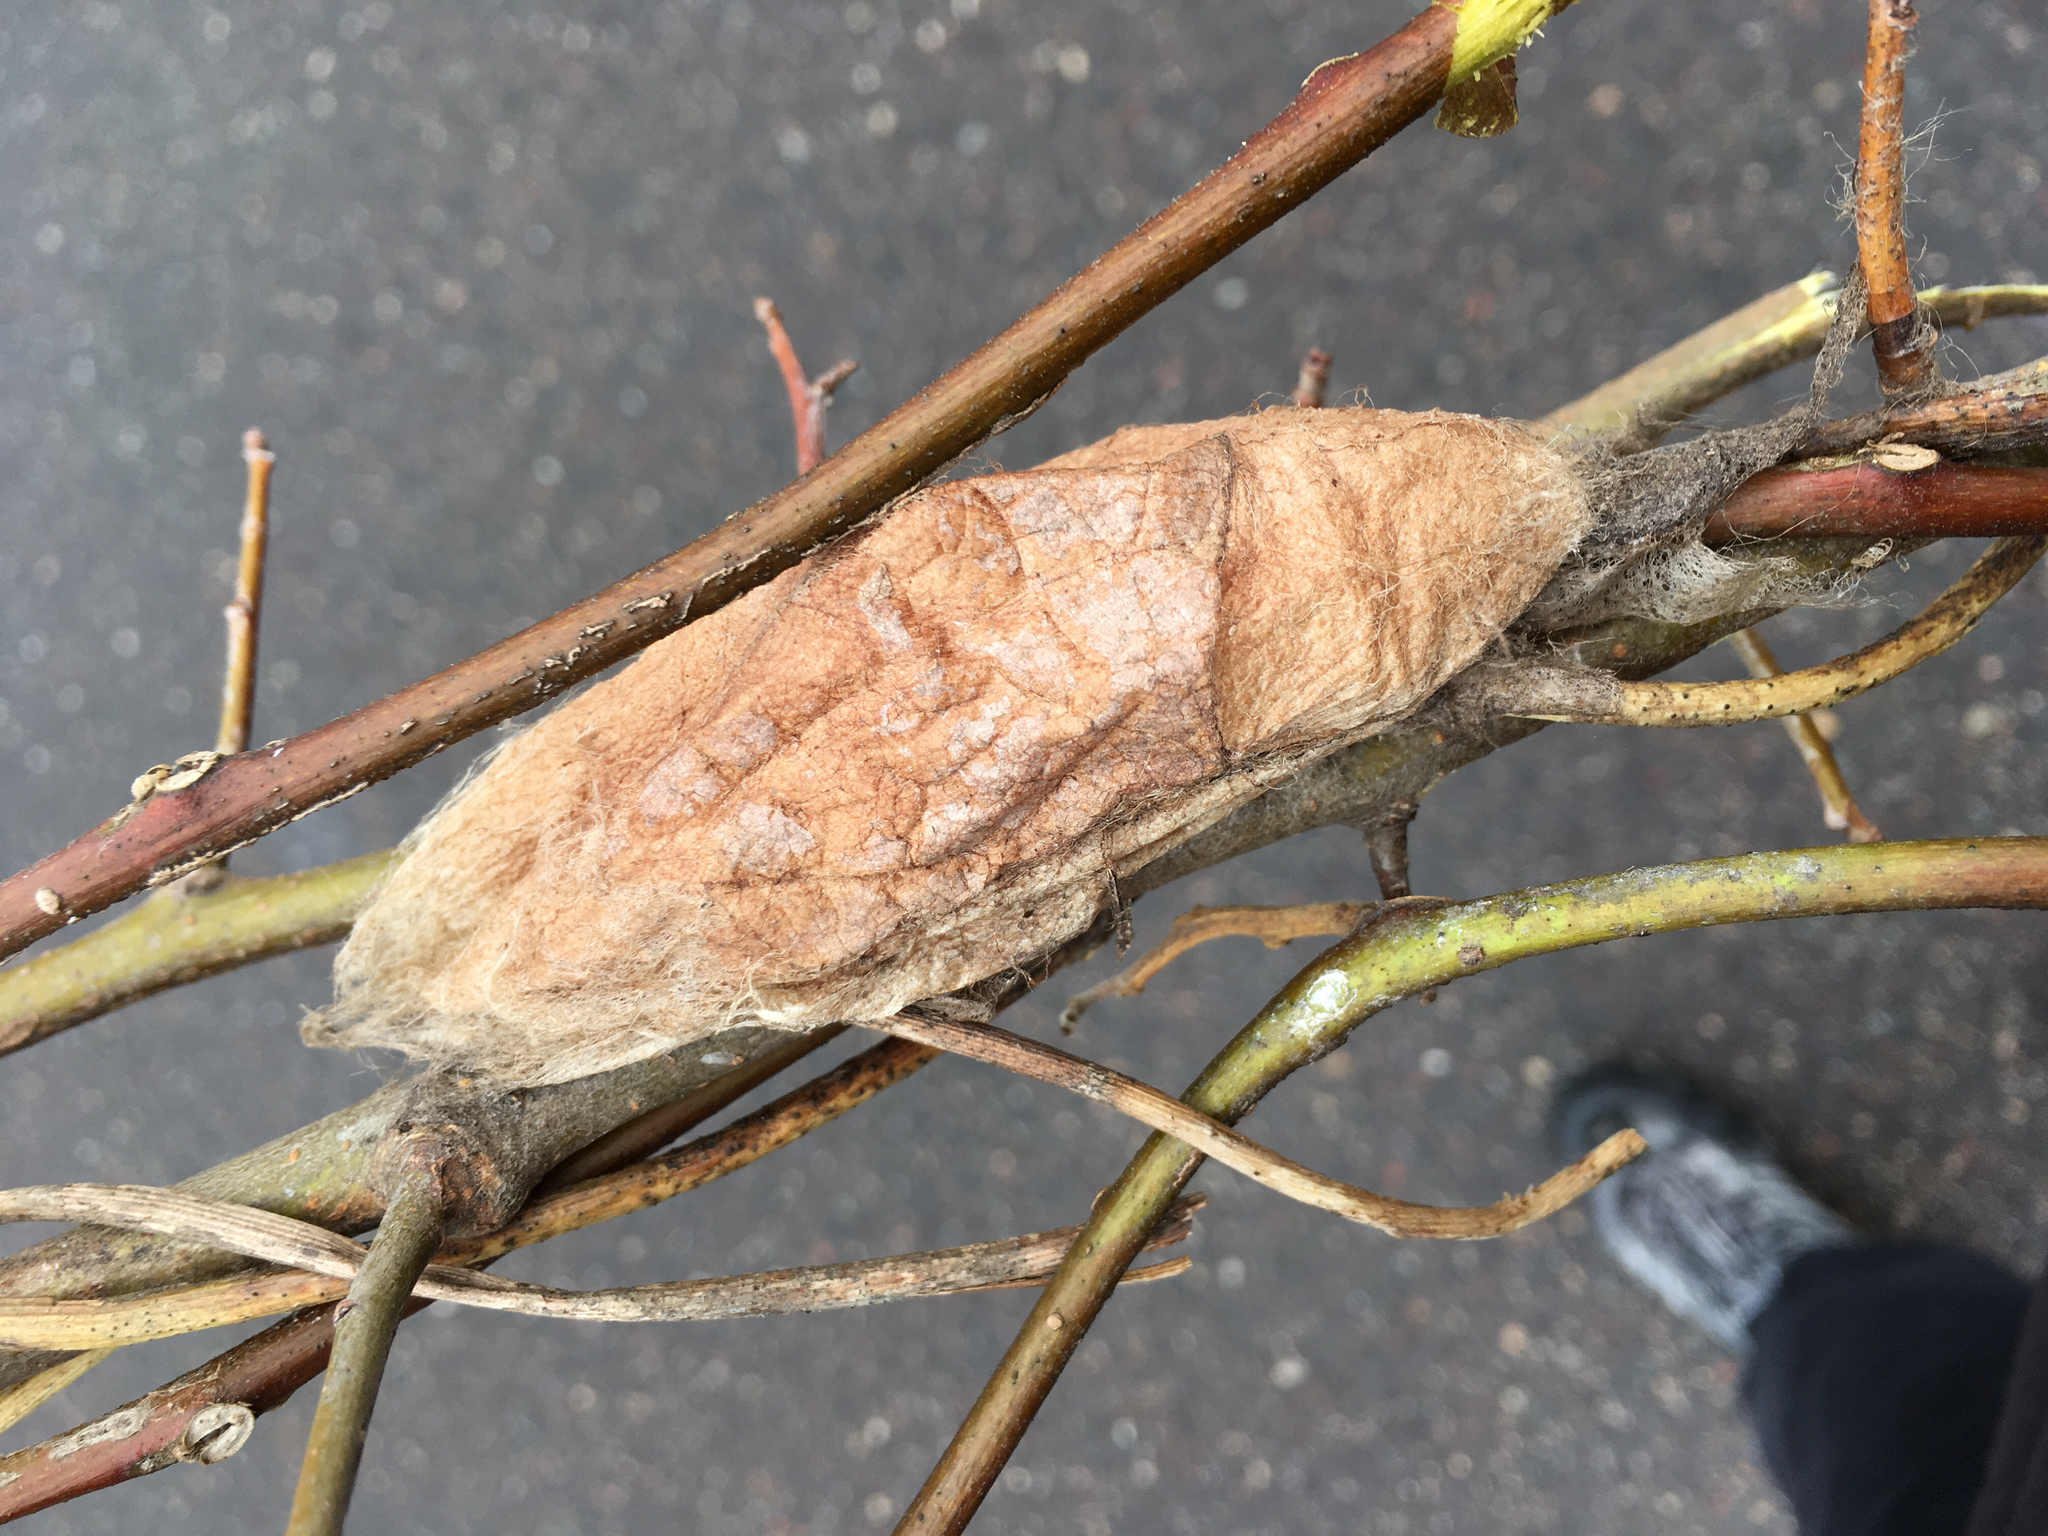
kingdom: Animalia
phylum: Arthropoda
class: Insecta
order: Lepidoptera
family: Saturniidae
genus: Hyalophora
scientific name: Hyalophora cecropia
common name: Cecropia silkmoth
